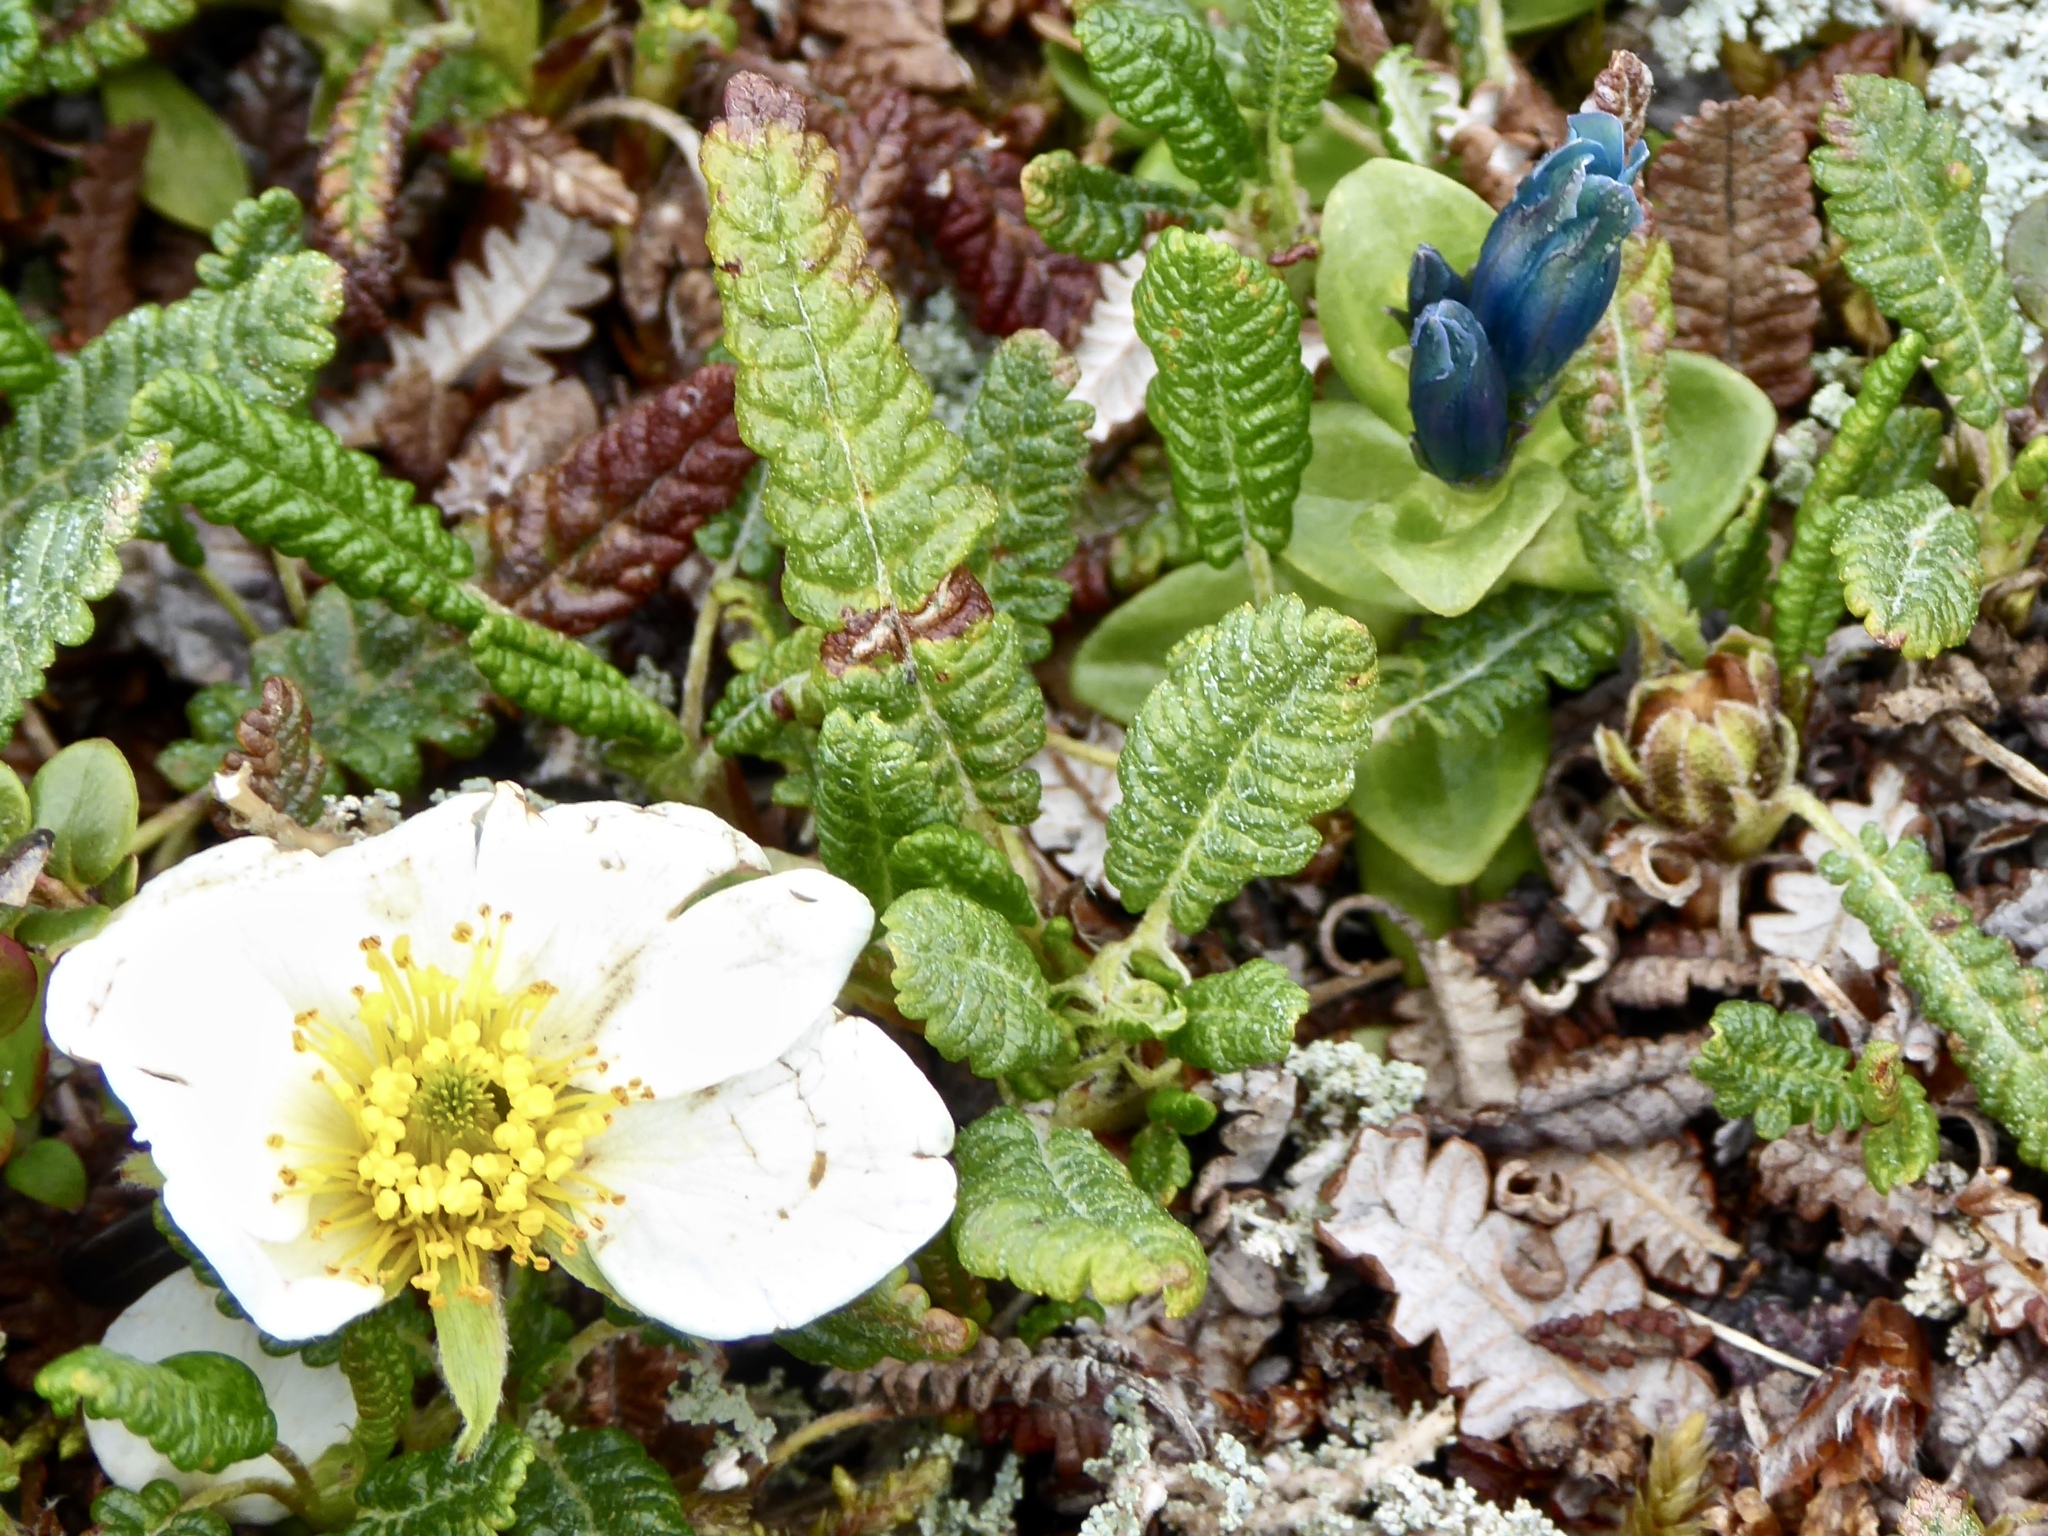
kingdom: Plantae
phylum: Tracheophyta
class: Magnoliopsida
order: Gentianales
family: Gentianaceae
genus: Gentiana
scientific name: Gentiana glauca
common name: Alpine gentian
